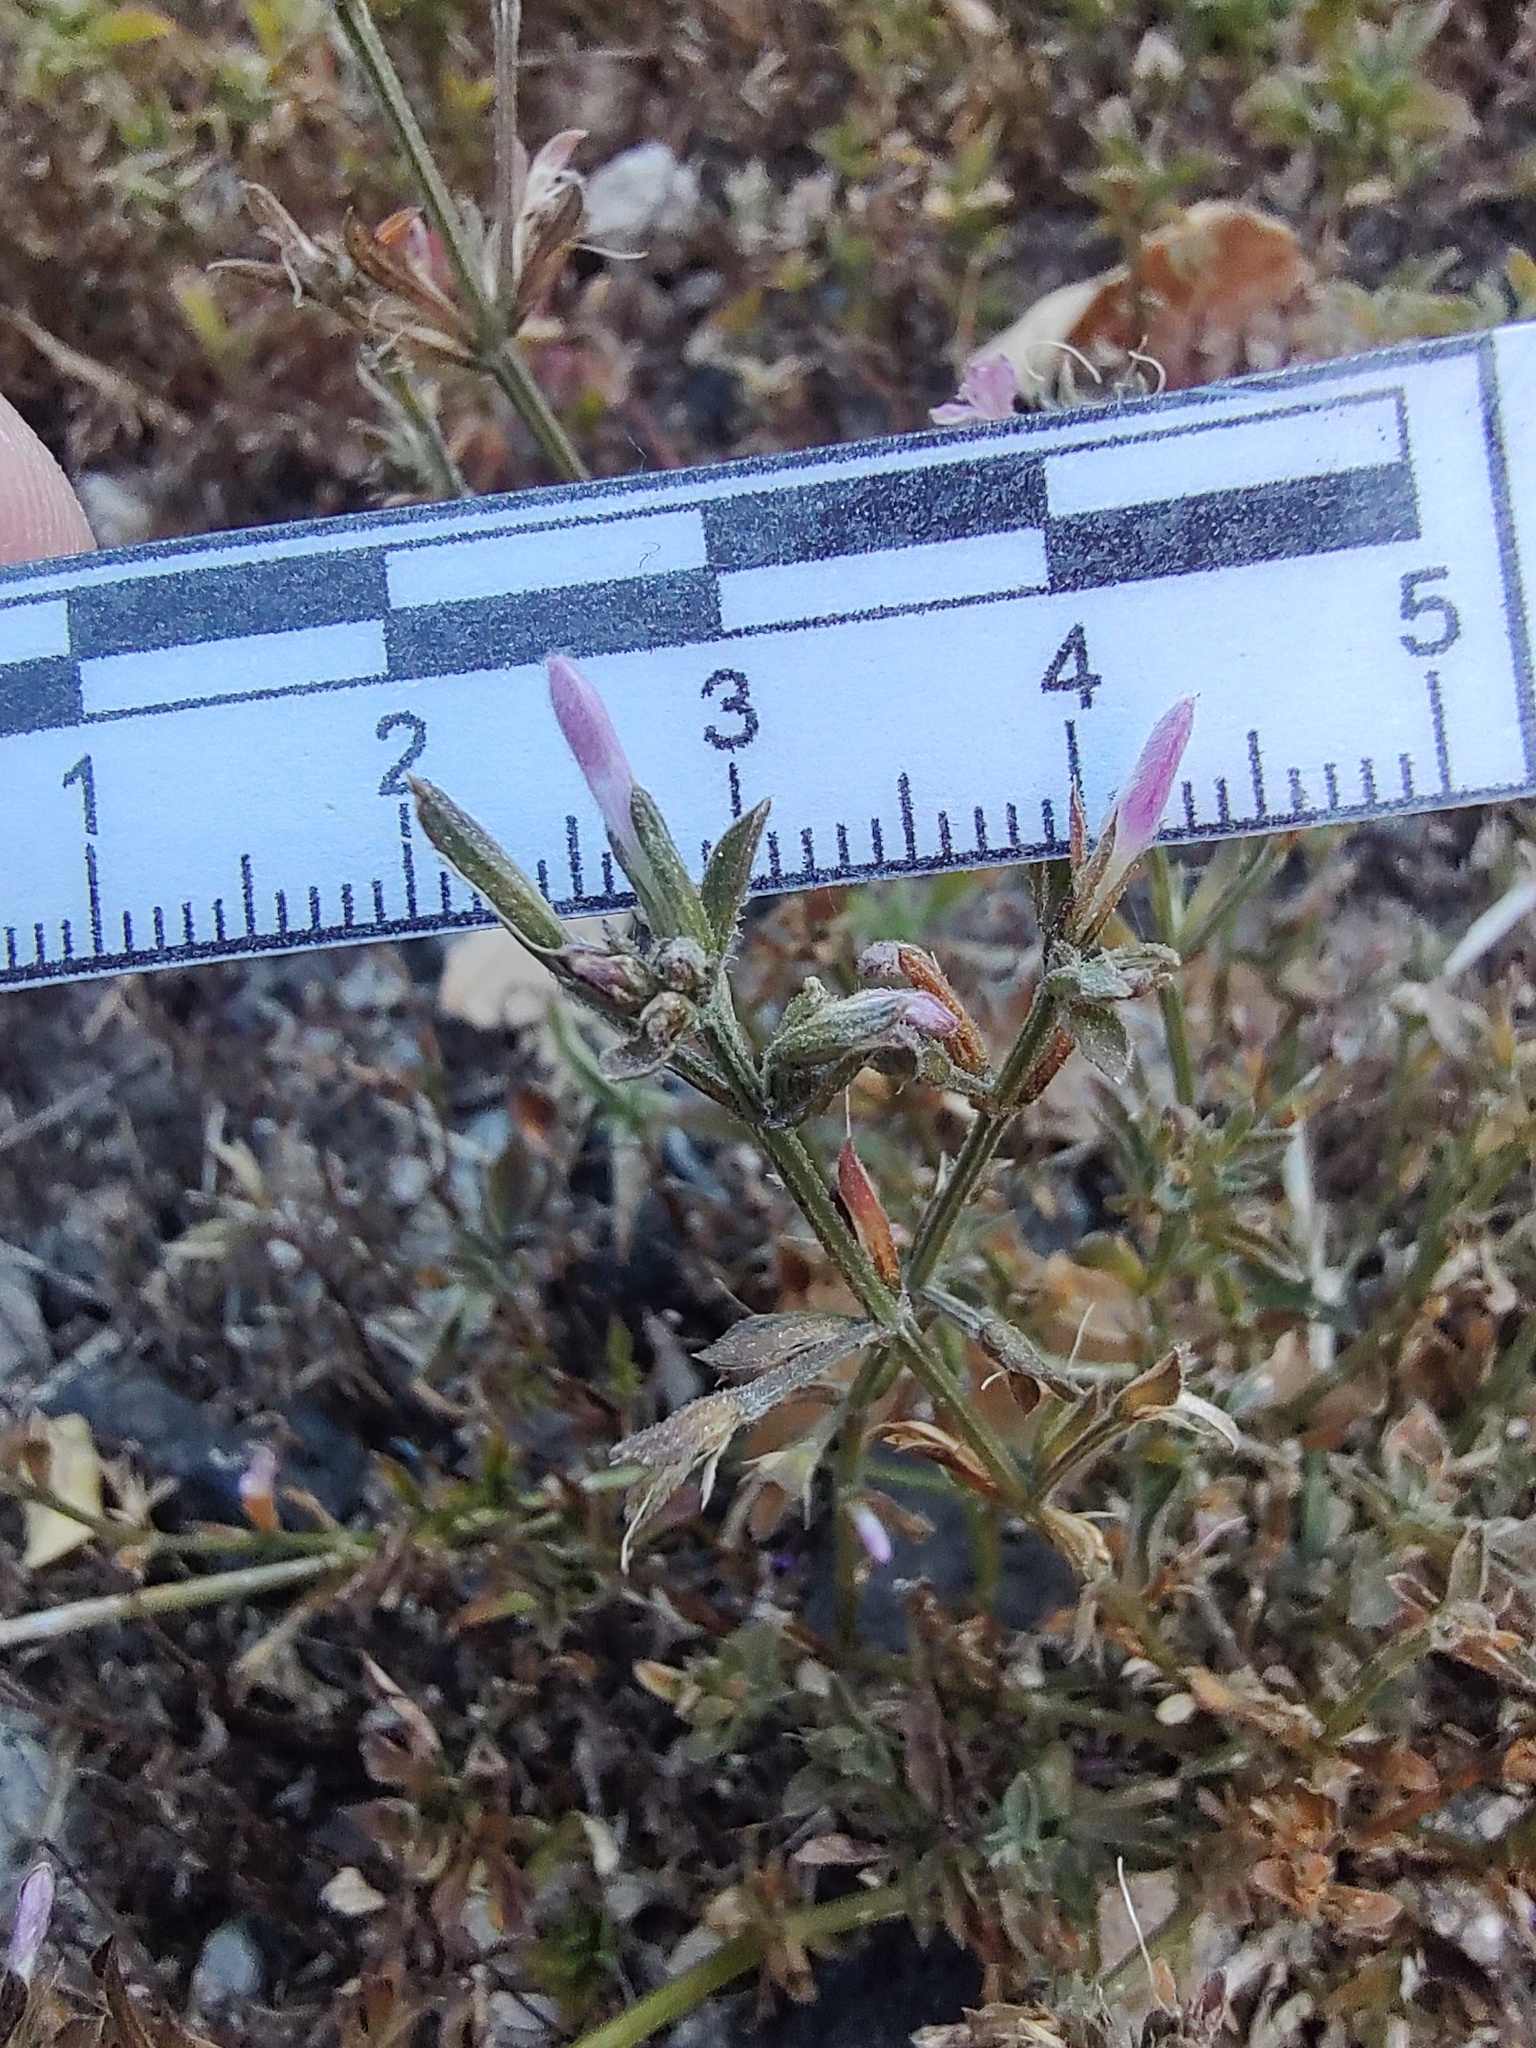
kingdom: Plantae
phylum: Tracheophyta
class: Magnoliopsida
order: Lamiales
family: Acanthaceae
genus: Dicliptera
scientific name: Dicliptera peduncularis
